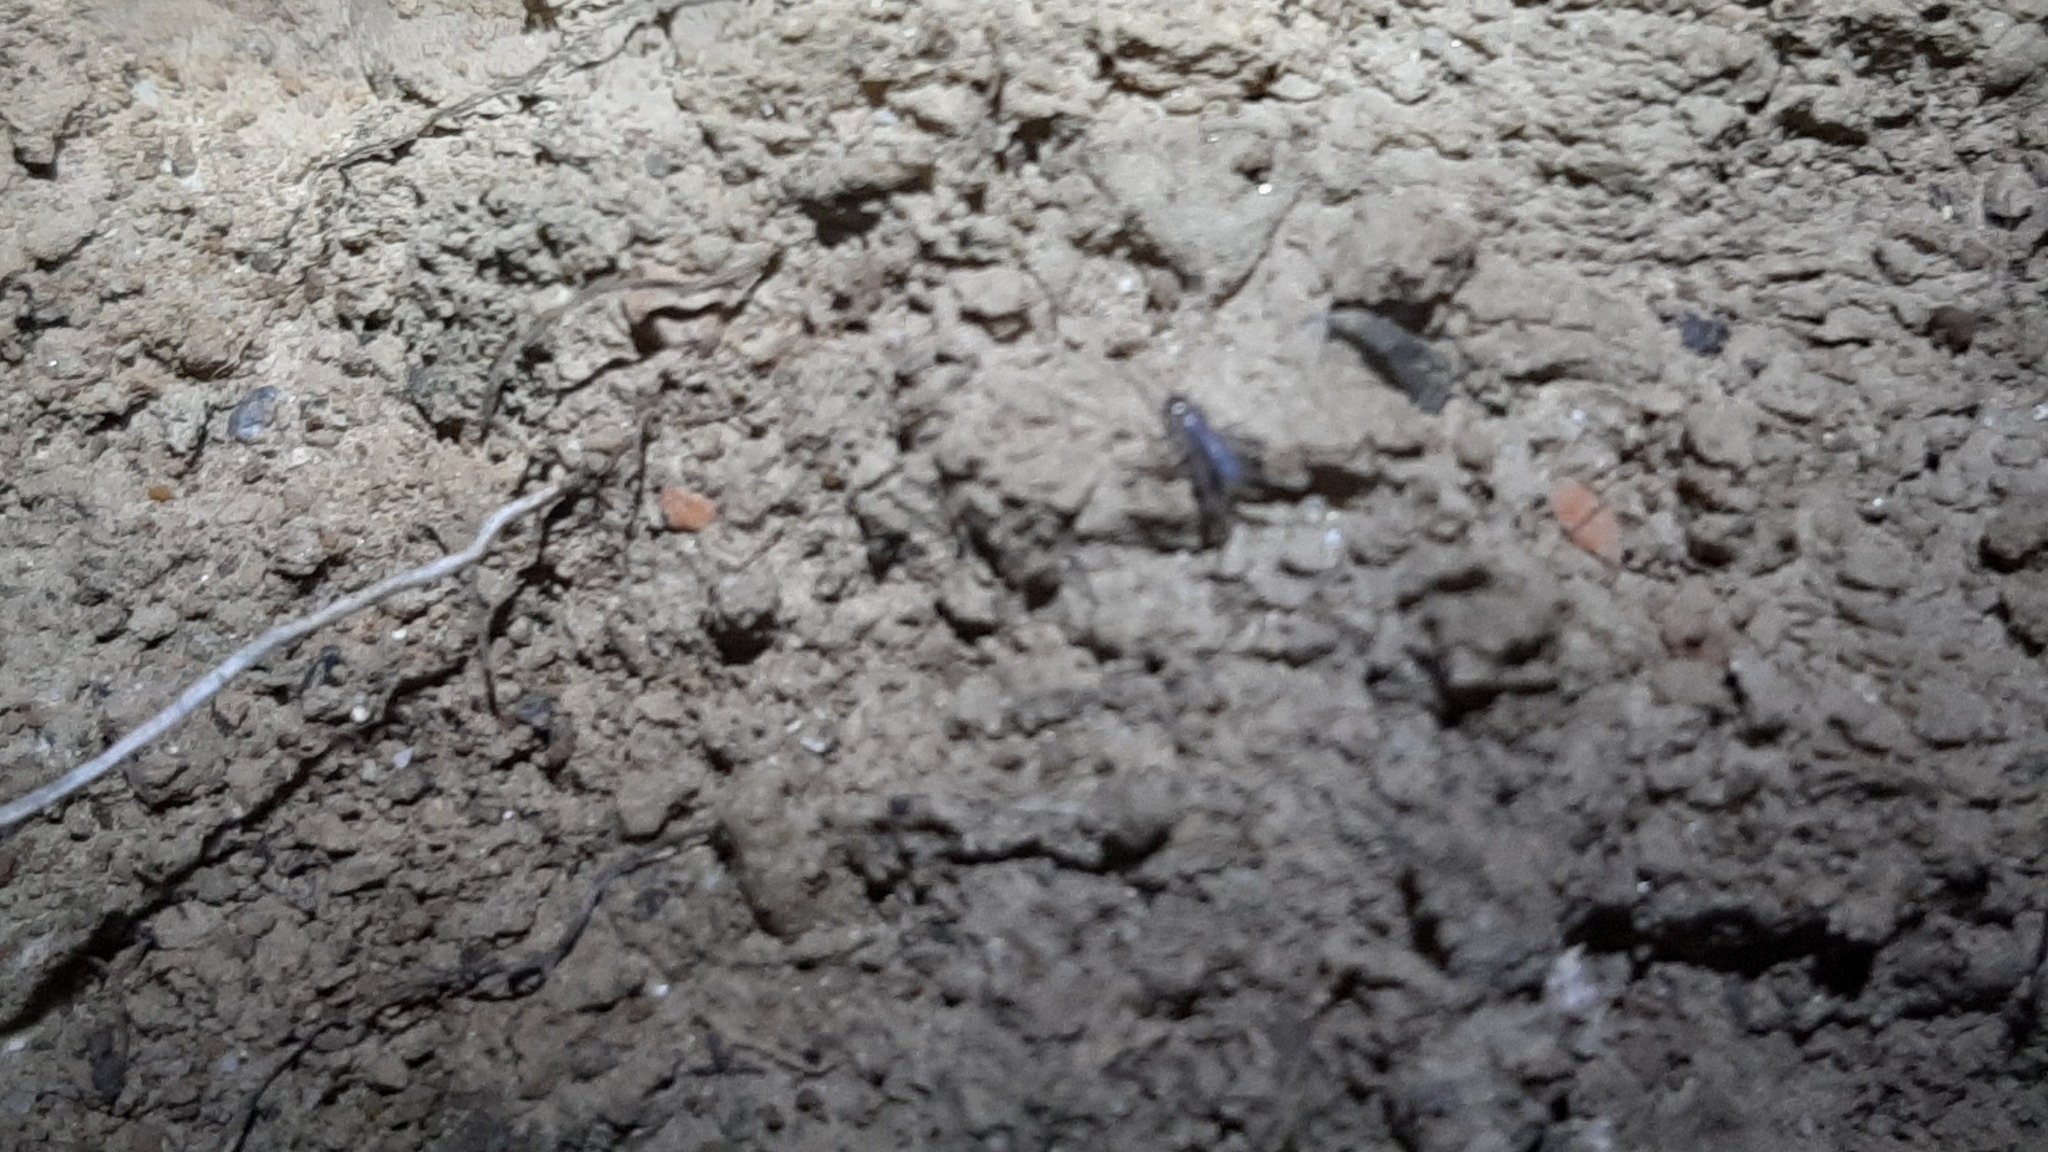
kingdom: Animalia
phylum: Arthropoda
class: Insecta
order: Orthoptera
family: Gryllidae
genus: Eumodicogryllus
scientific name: Eumodicogryllus bordigalensis
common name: Bordeaux cricket
